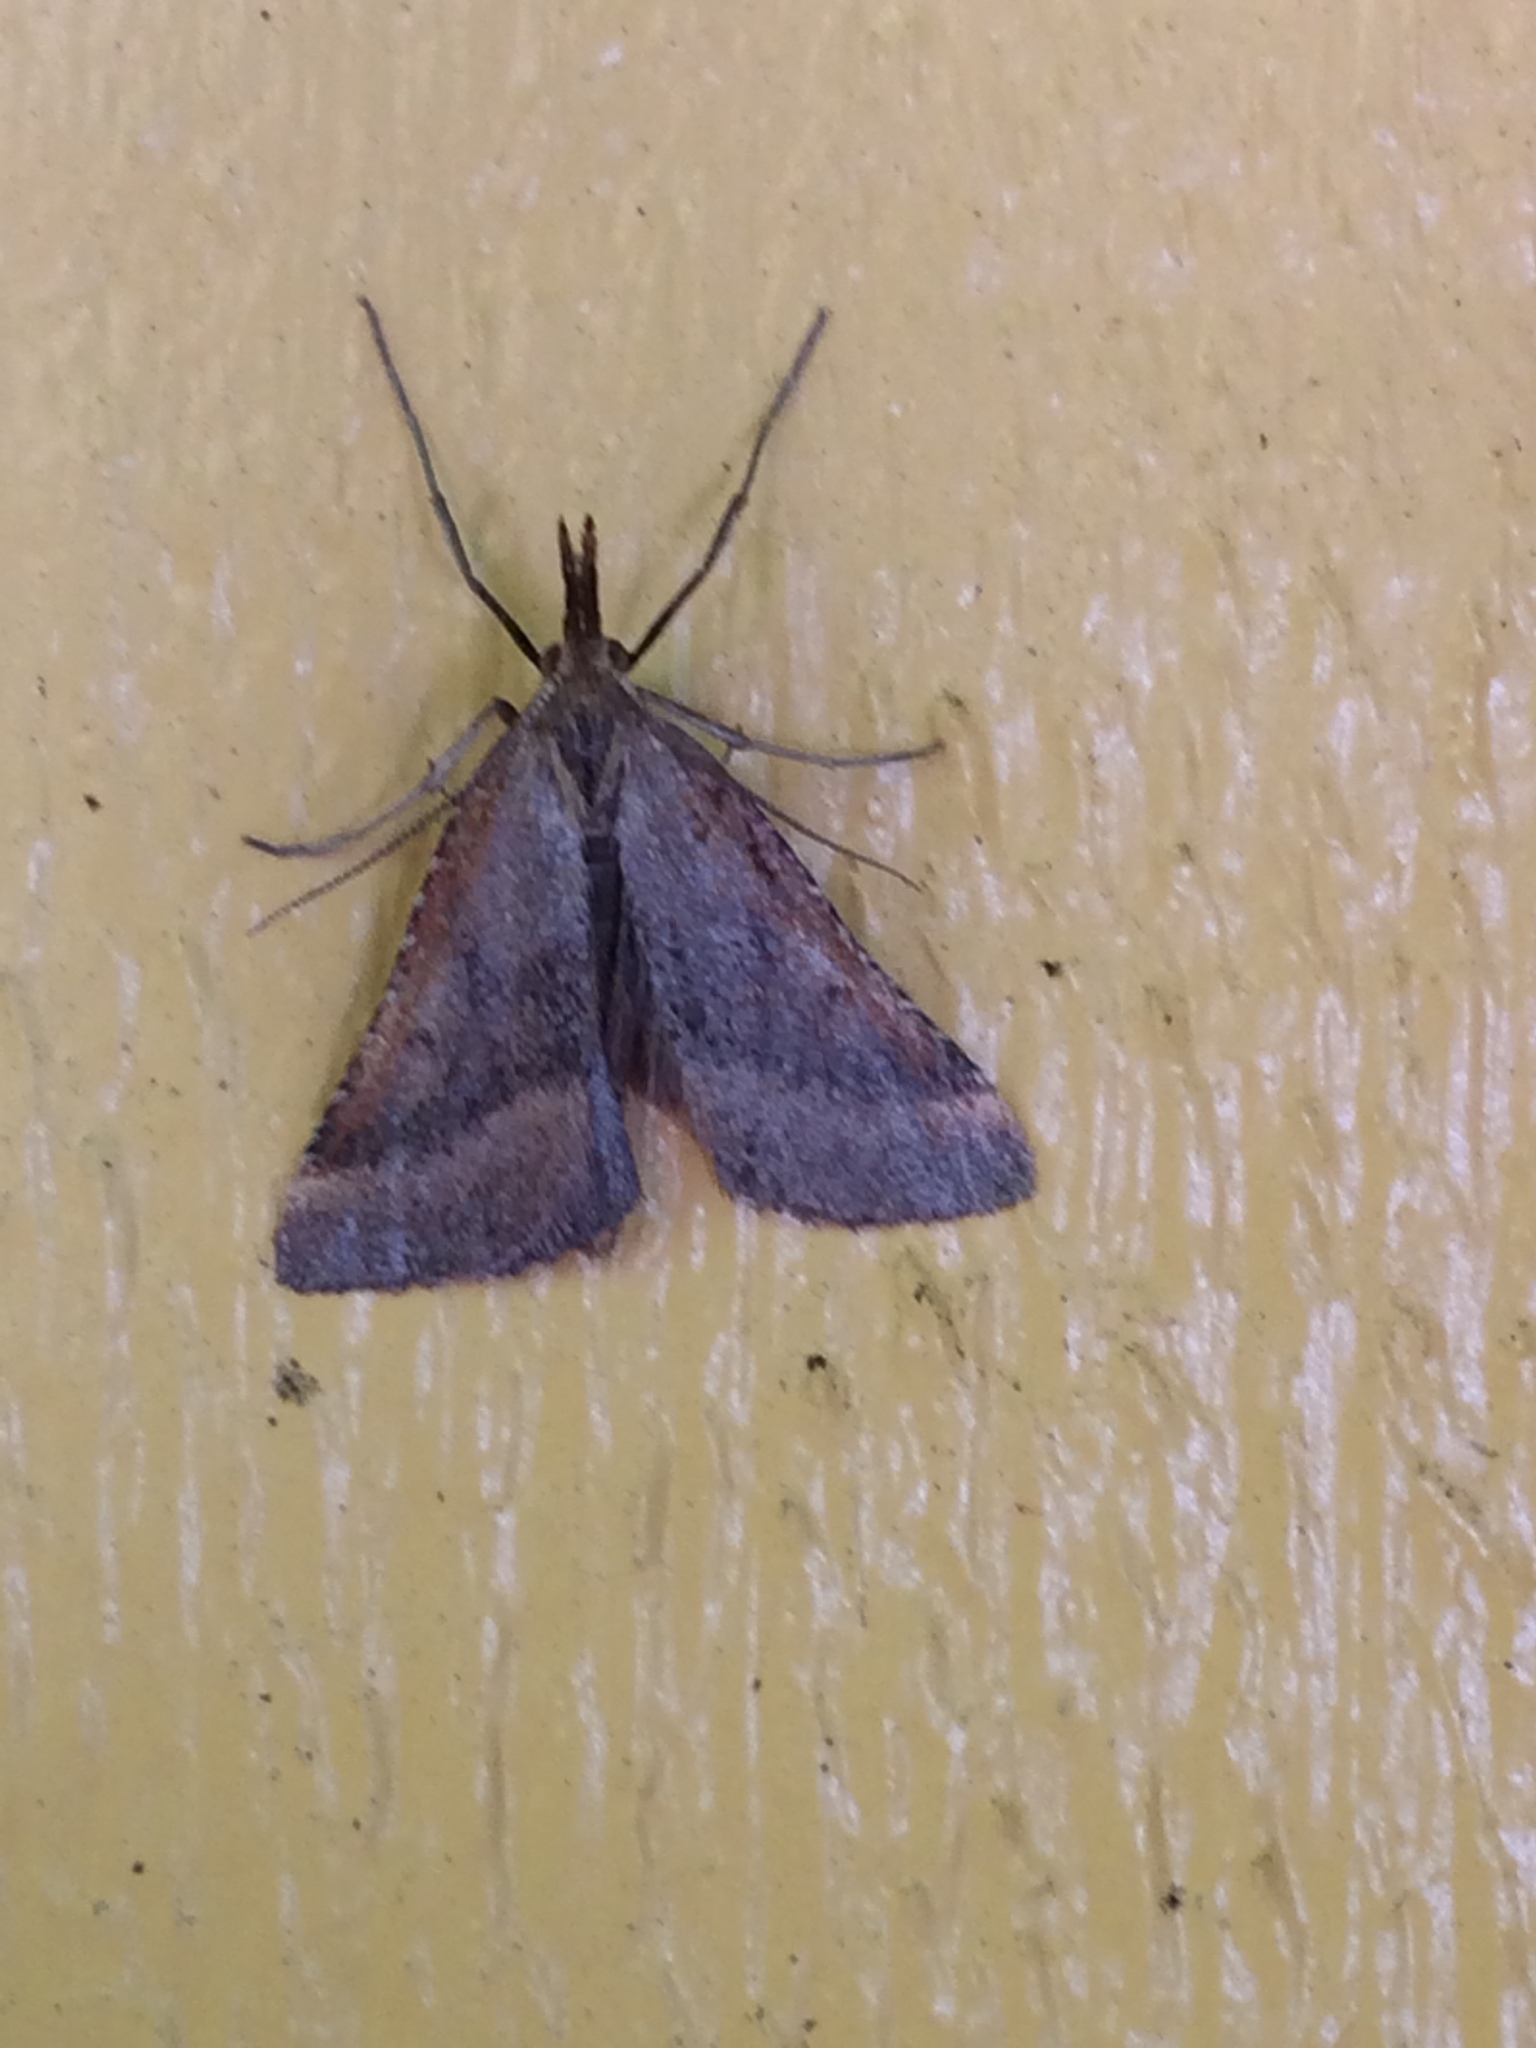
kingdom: Animalia
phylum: Arthropoda
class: Insecta
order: Lepidoptera
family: Pyralidae
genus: Synaphe
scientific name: Synaphe punctalis
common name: Long-legged tabby
